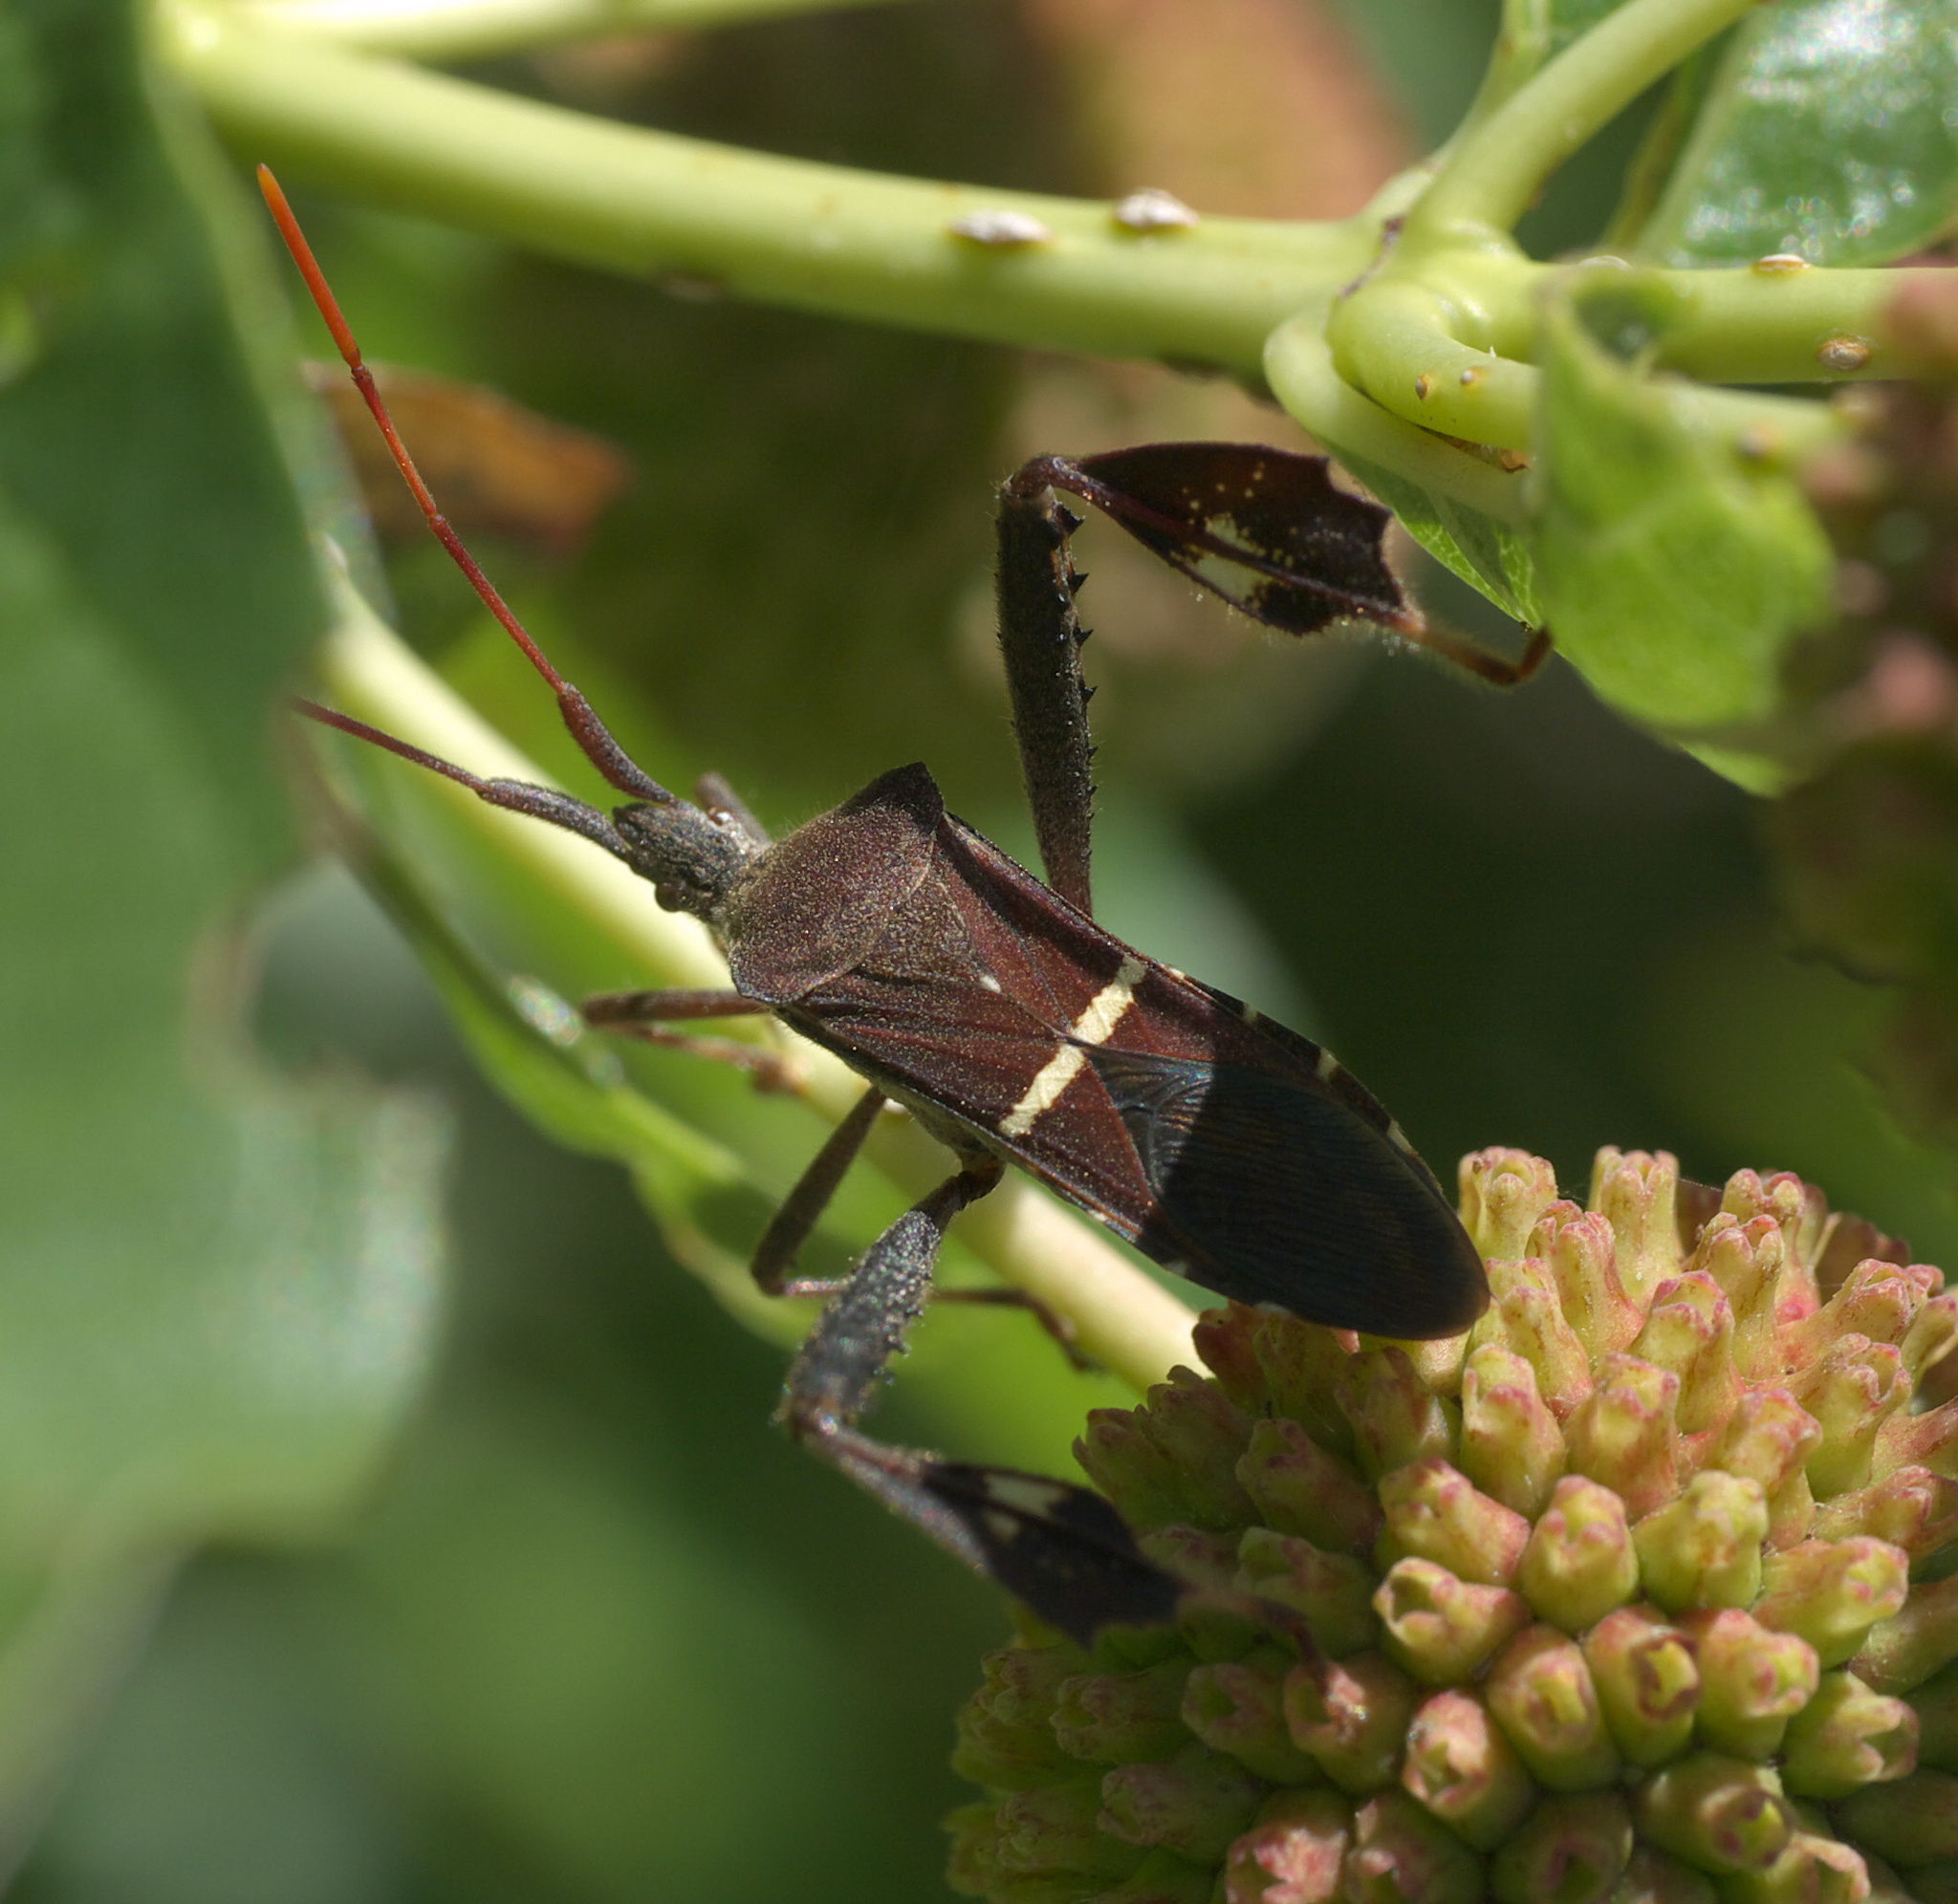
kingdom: Animalia
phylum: Arthropoda
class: Insecta
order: Hemiptera
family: Coreidae
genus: Leptoglossus
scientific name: Leptoglossus phyllopus
